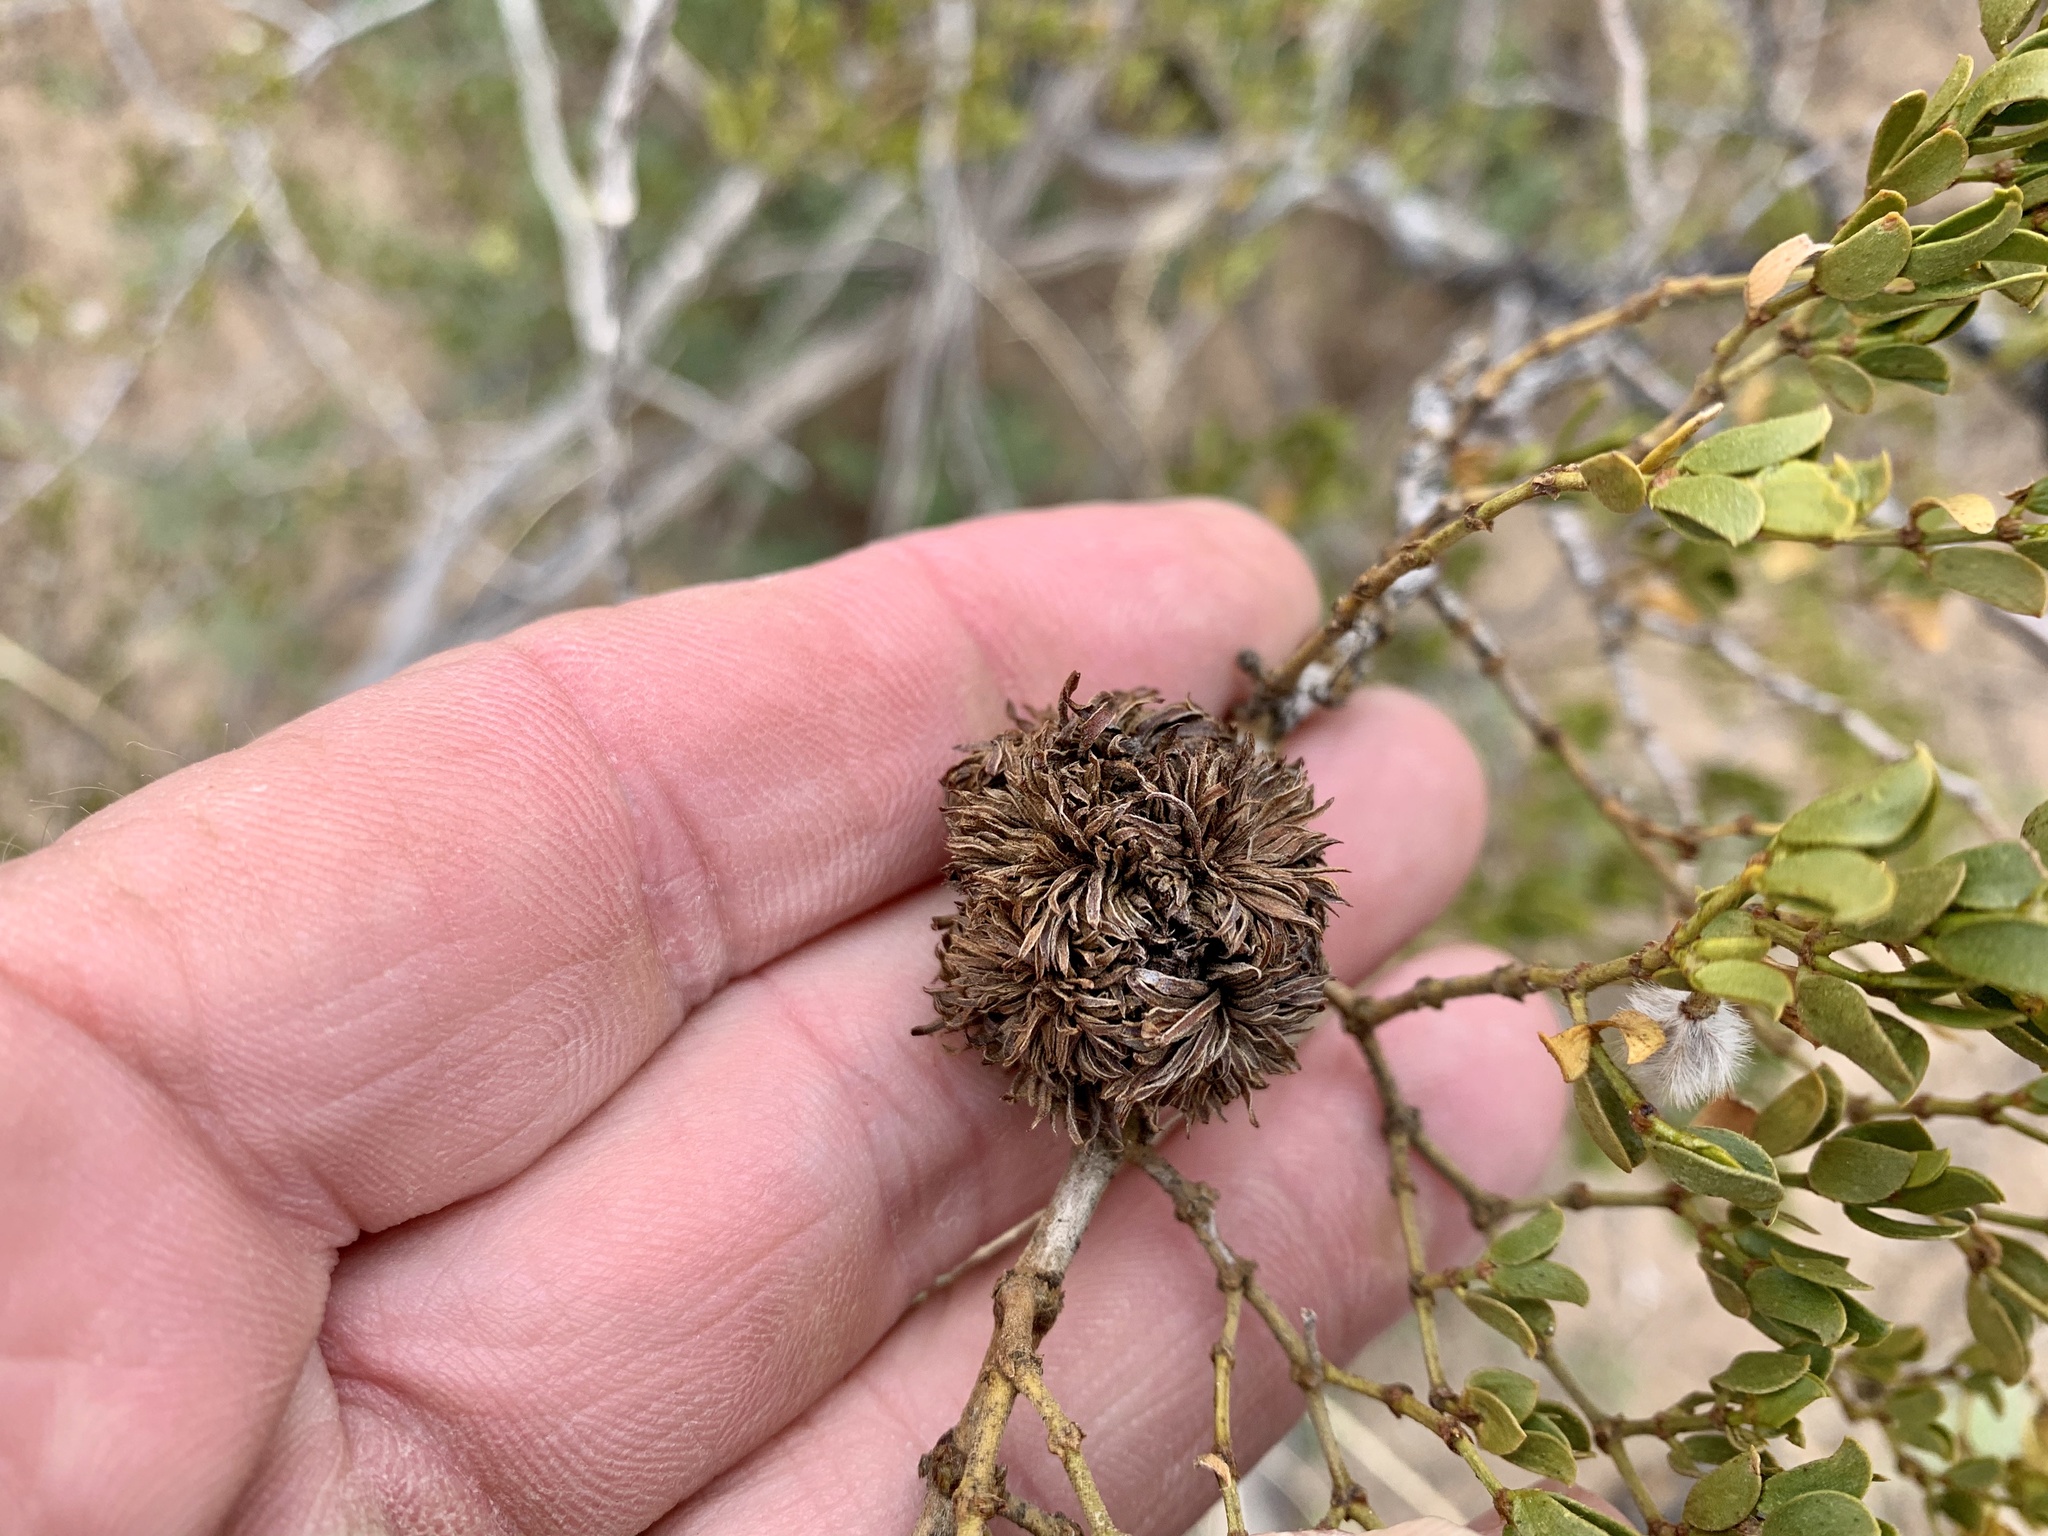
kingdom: Animalia
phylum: Arthropoda
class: Insecta
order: Diptera
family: Cecidomyiidae
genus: Asphondylia
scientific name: Asphondylia auripila
